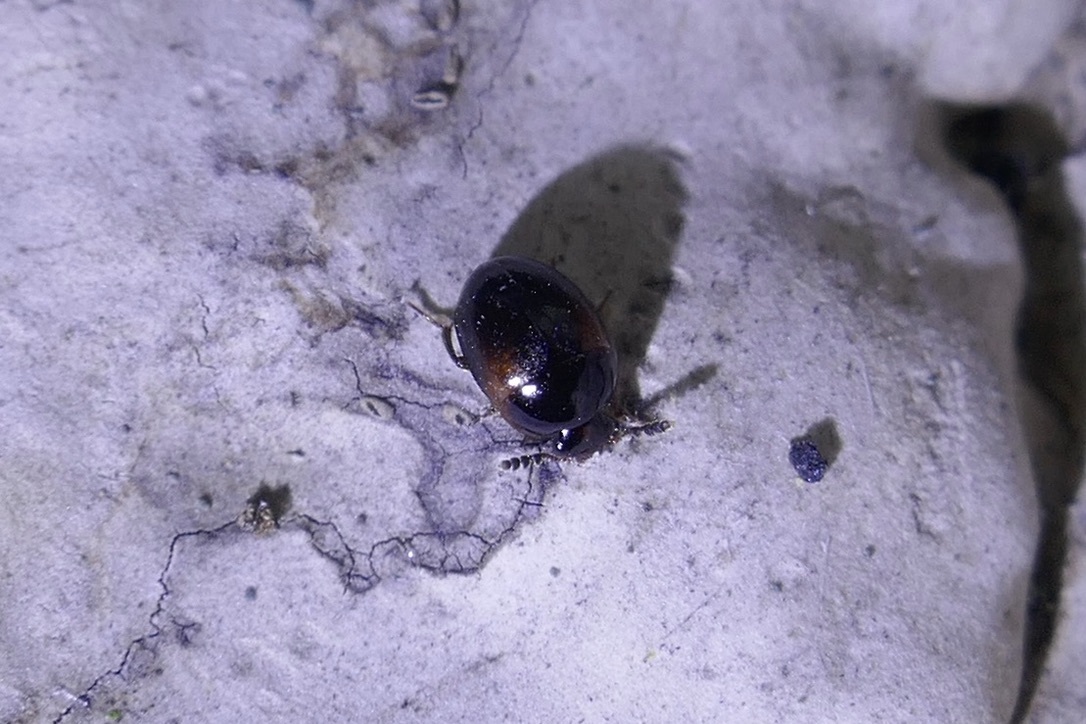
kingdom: Animalia
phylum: Arthropoda
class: Insecta
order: Coleoptera
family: Leiodidae
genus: Anisotoma
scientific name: Anisotoma humeralis
